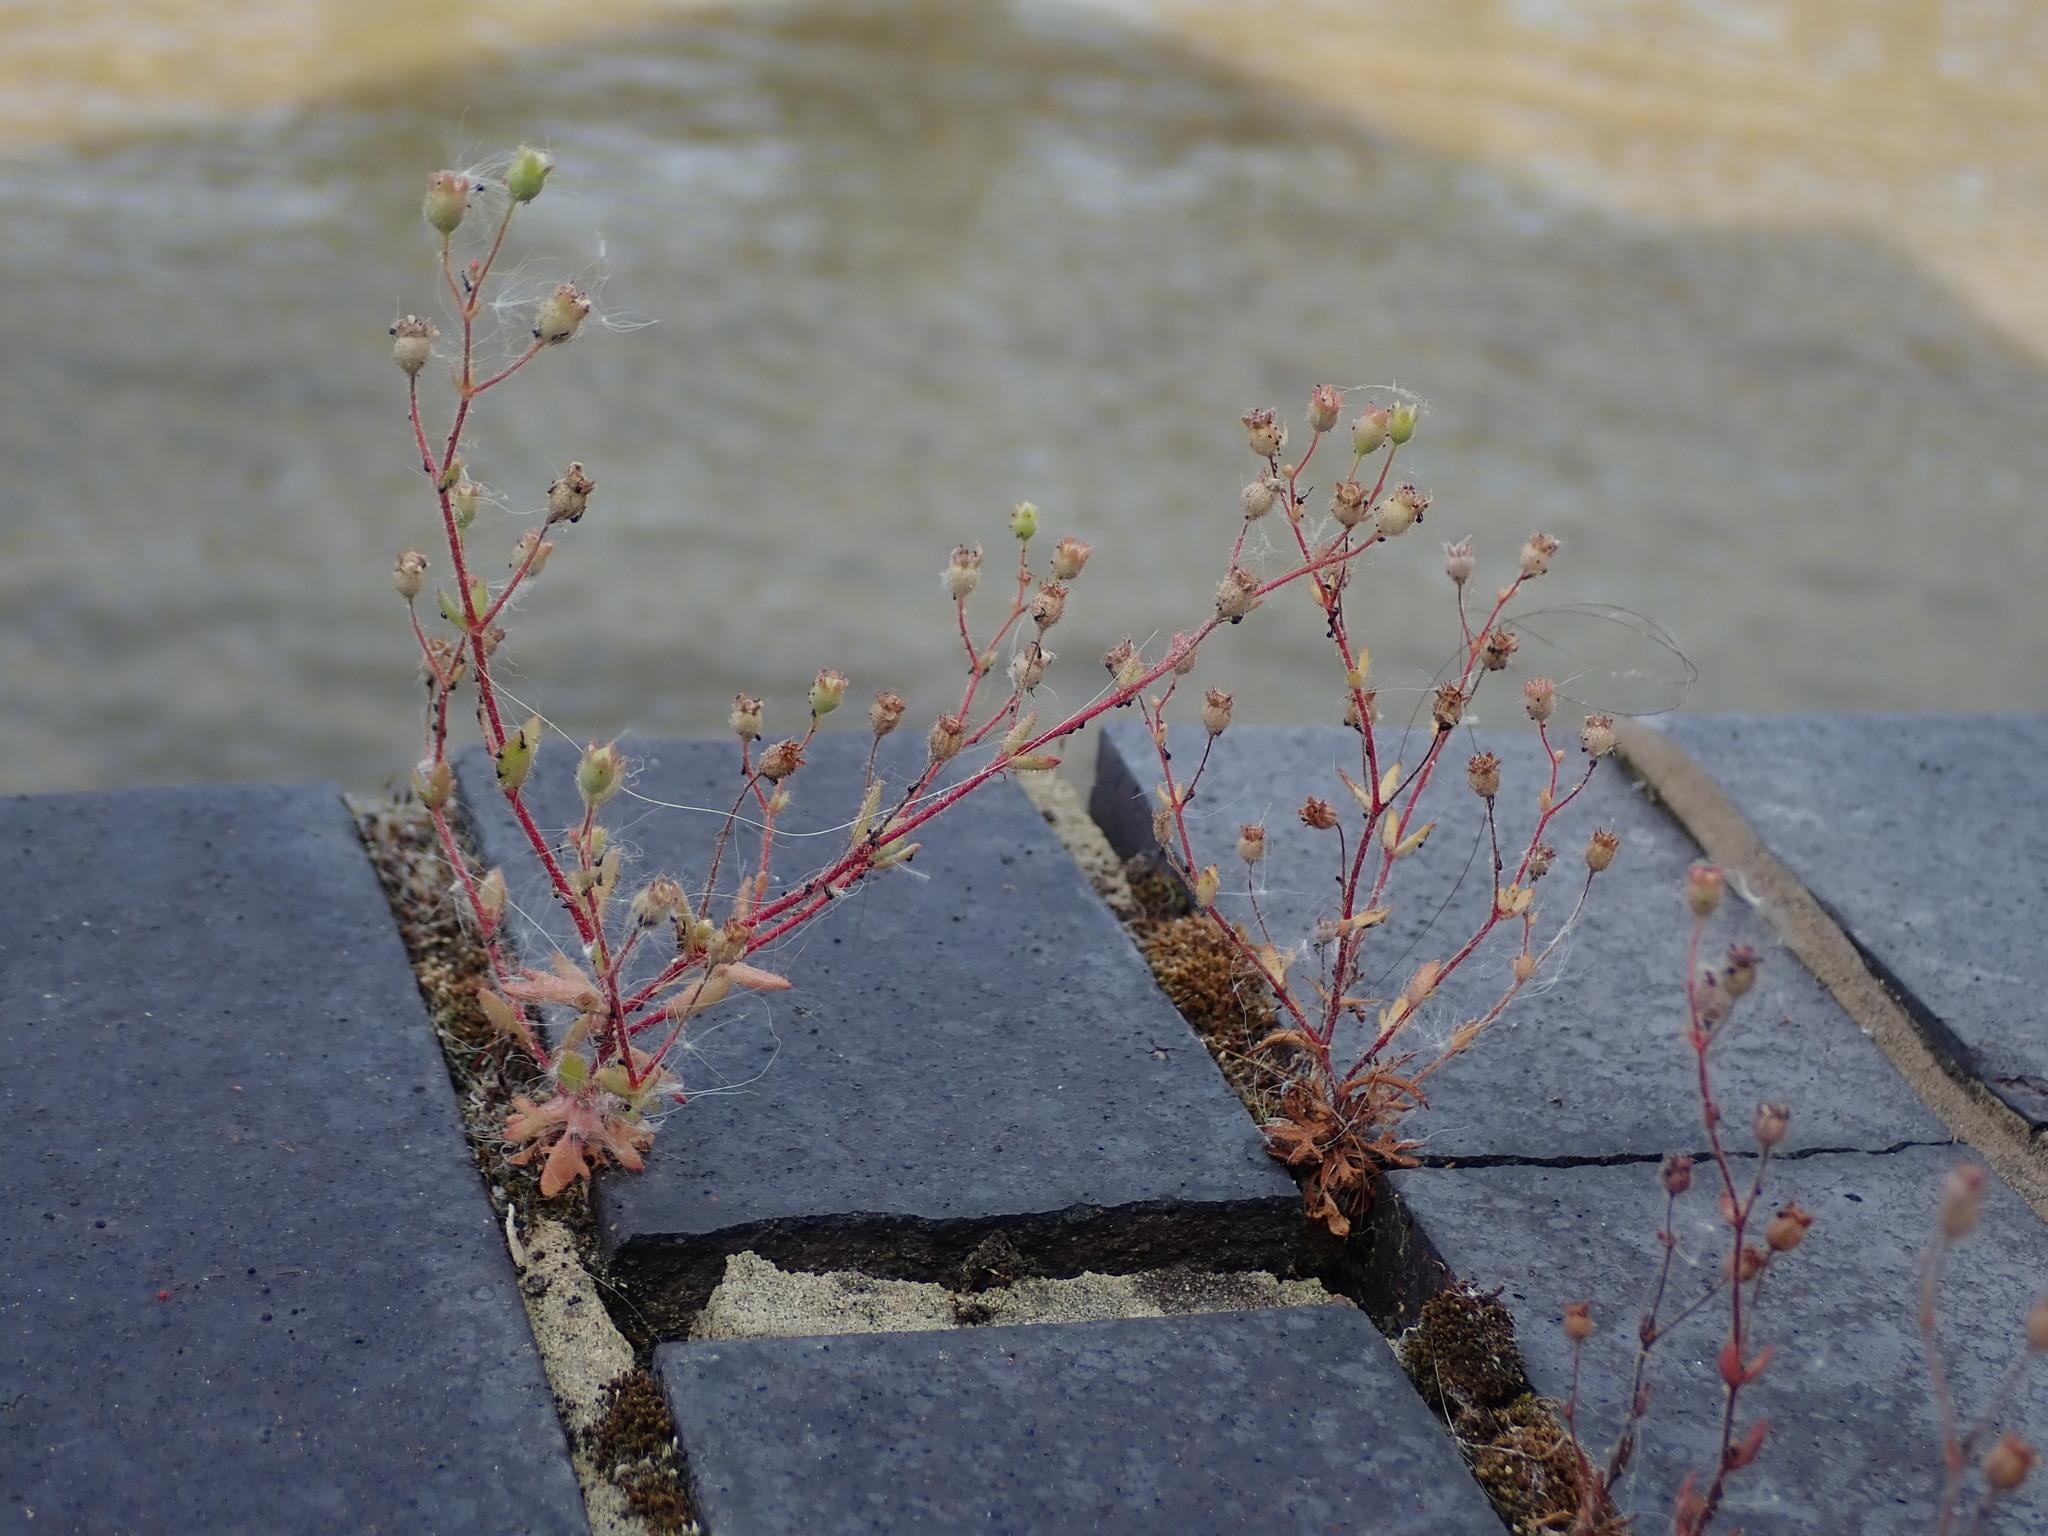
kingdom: Plantae
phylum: Tracheophyta
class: Magnoliopsida
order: Saxifragales
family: Saxifragaceae
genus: Saxifraga
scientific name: Saxifraga tridactylites
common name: Rue-leaved saxifrage
